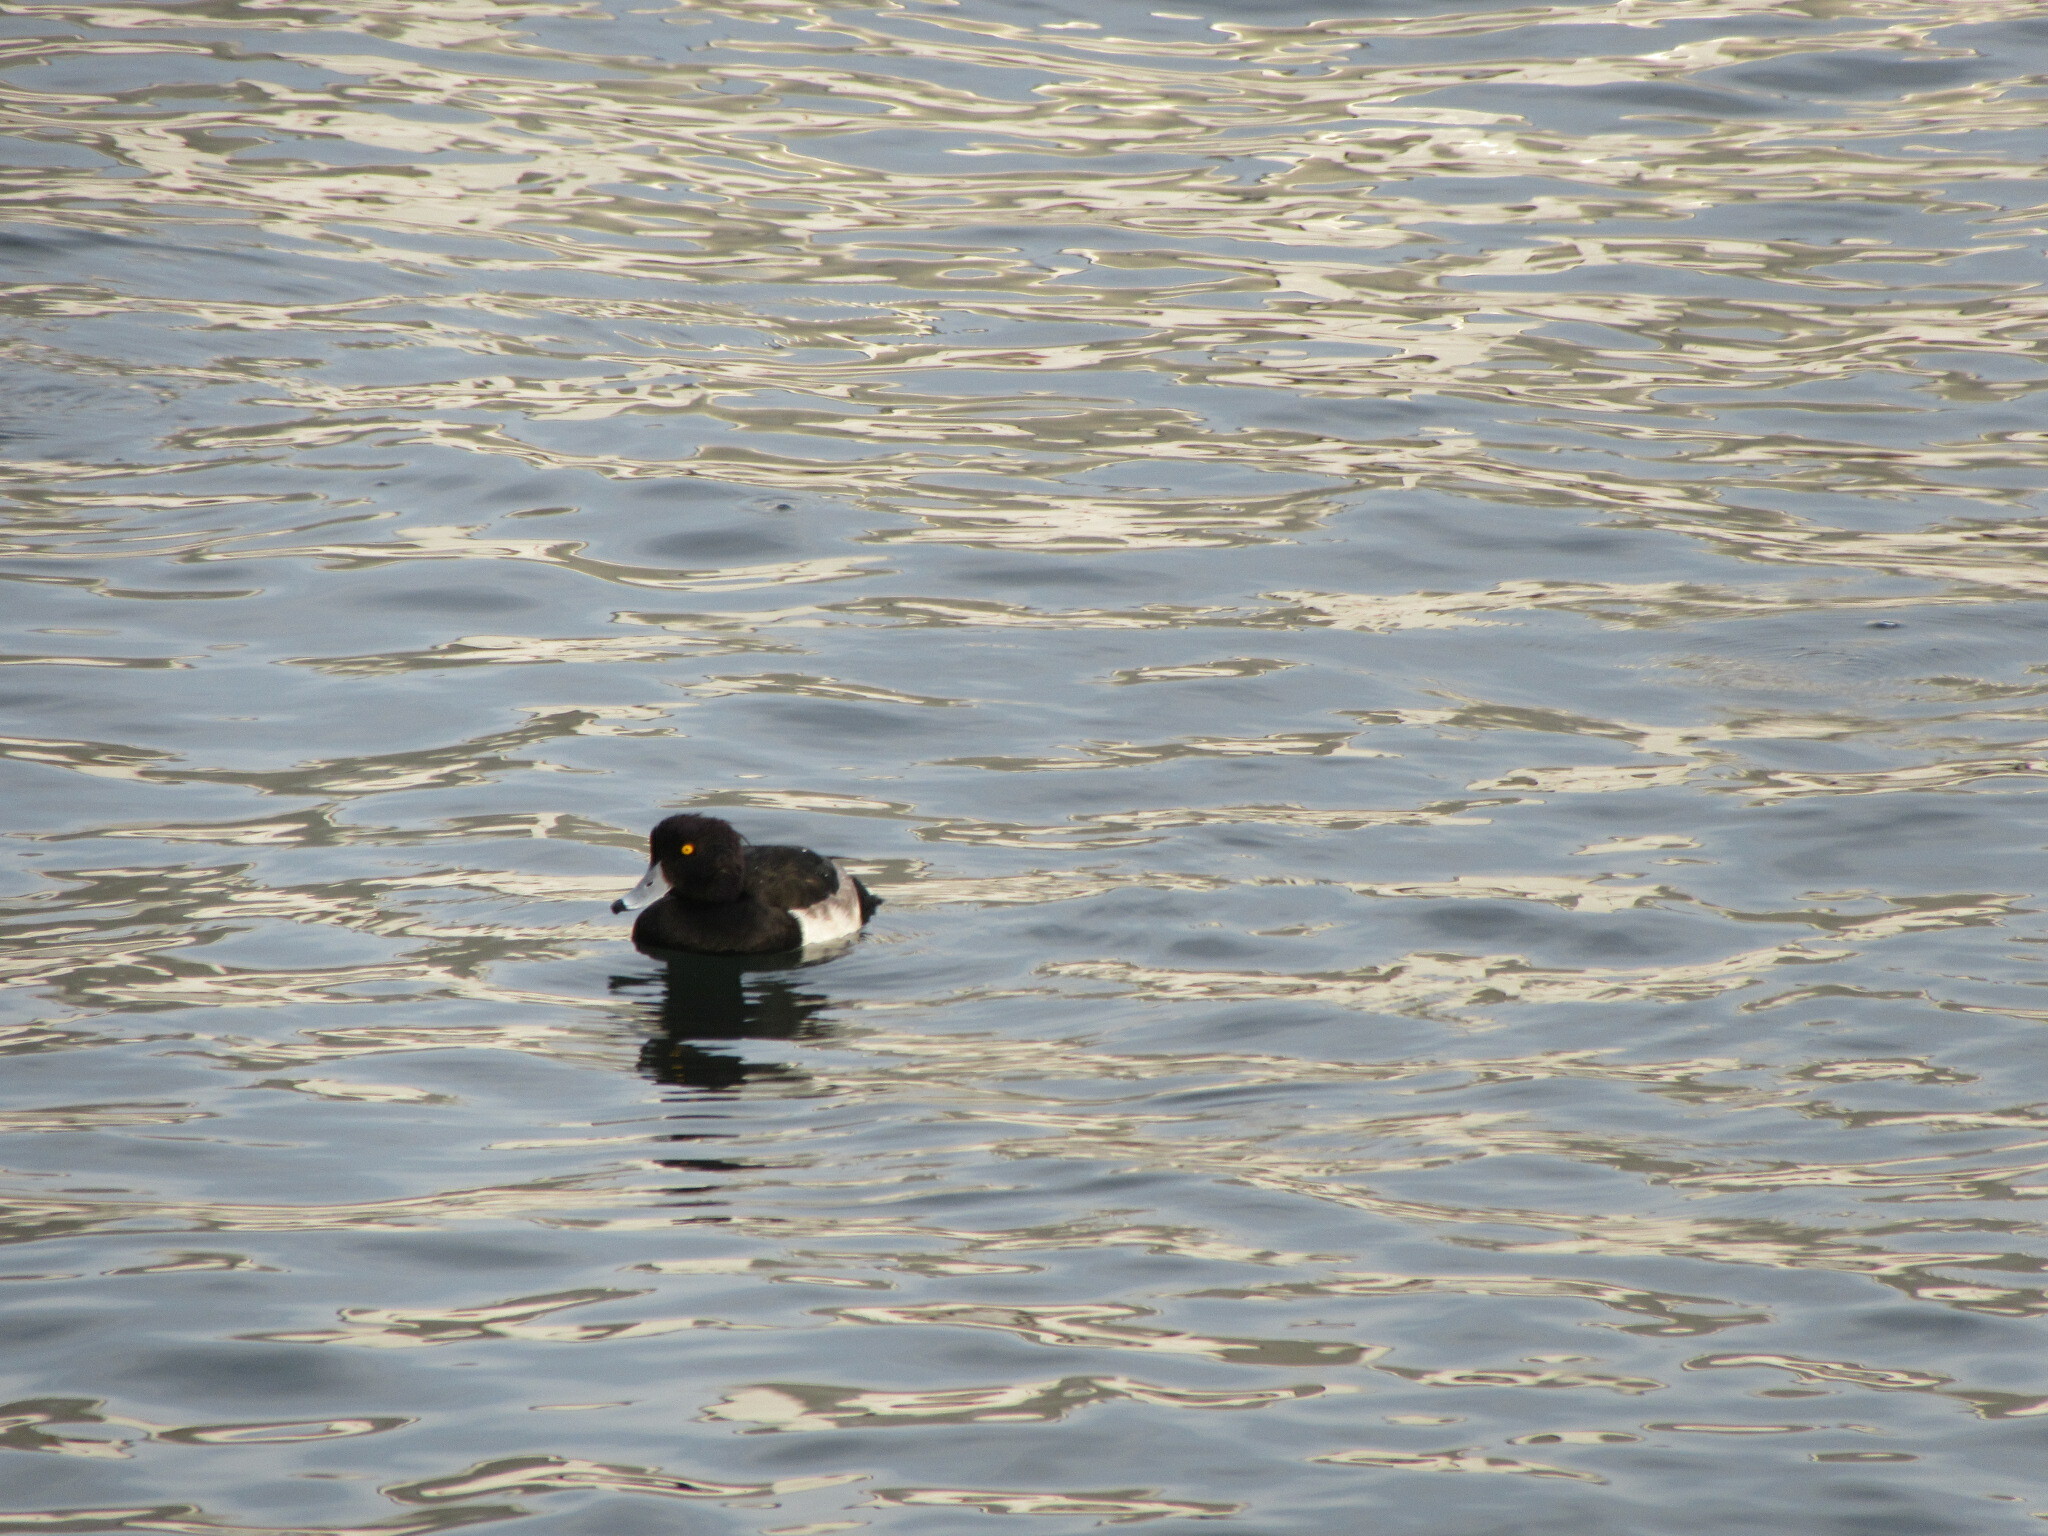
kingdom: Animalia
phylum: Chordata
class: Aves
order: Anseriformes
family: Anatidae
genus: Aythya
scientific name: Aythya fuligula
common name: Tufted duck
